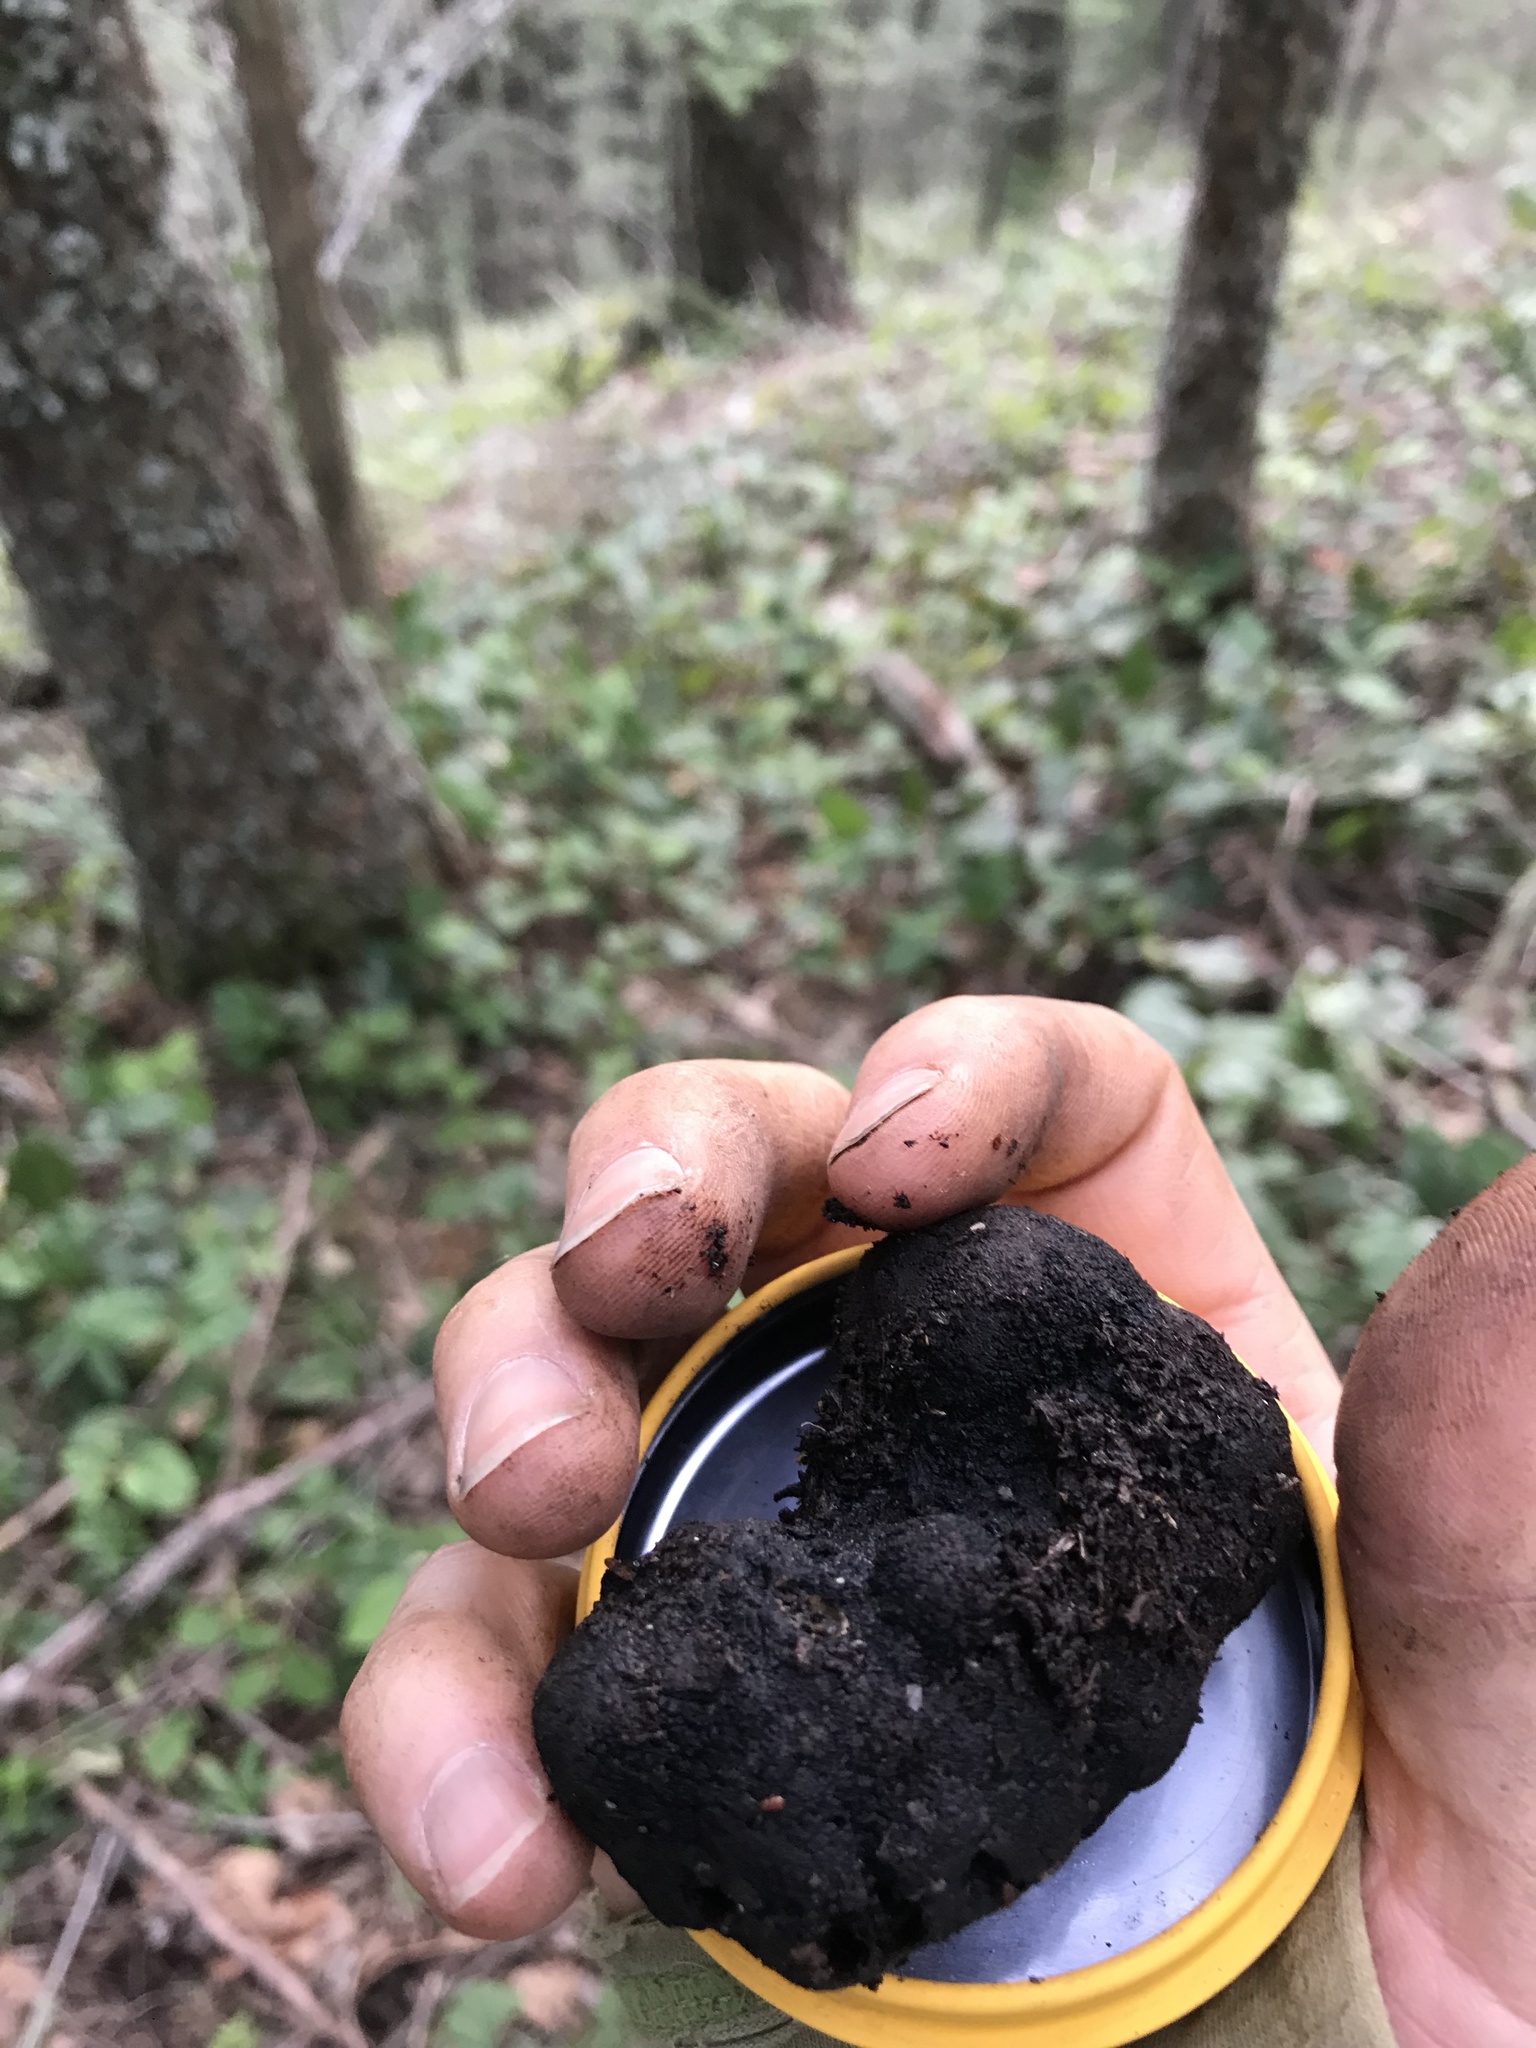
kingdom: Fungi
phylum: Ascomycota
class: Pezizomycetes
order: Pezizales
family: Morchellaceae
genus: Leucangium
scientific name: Leucangium carthusianum
